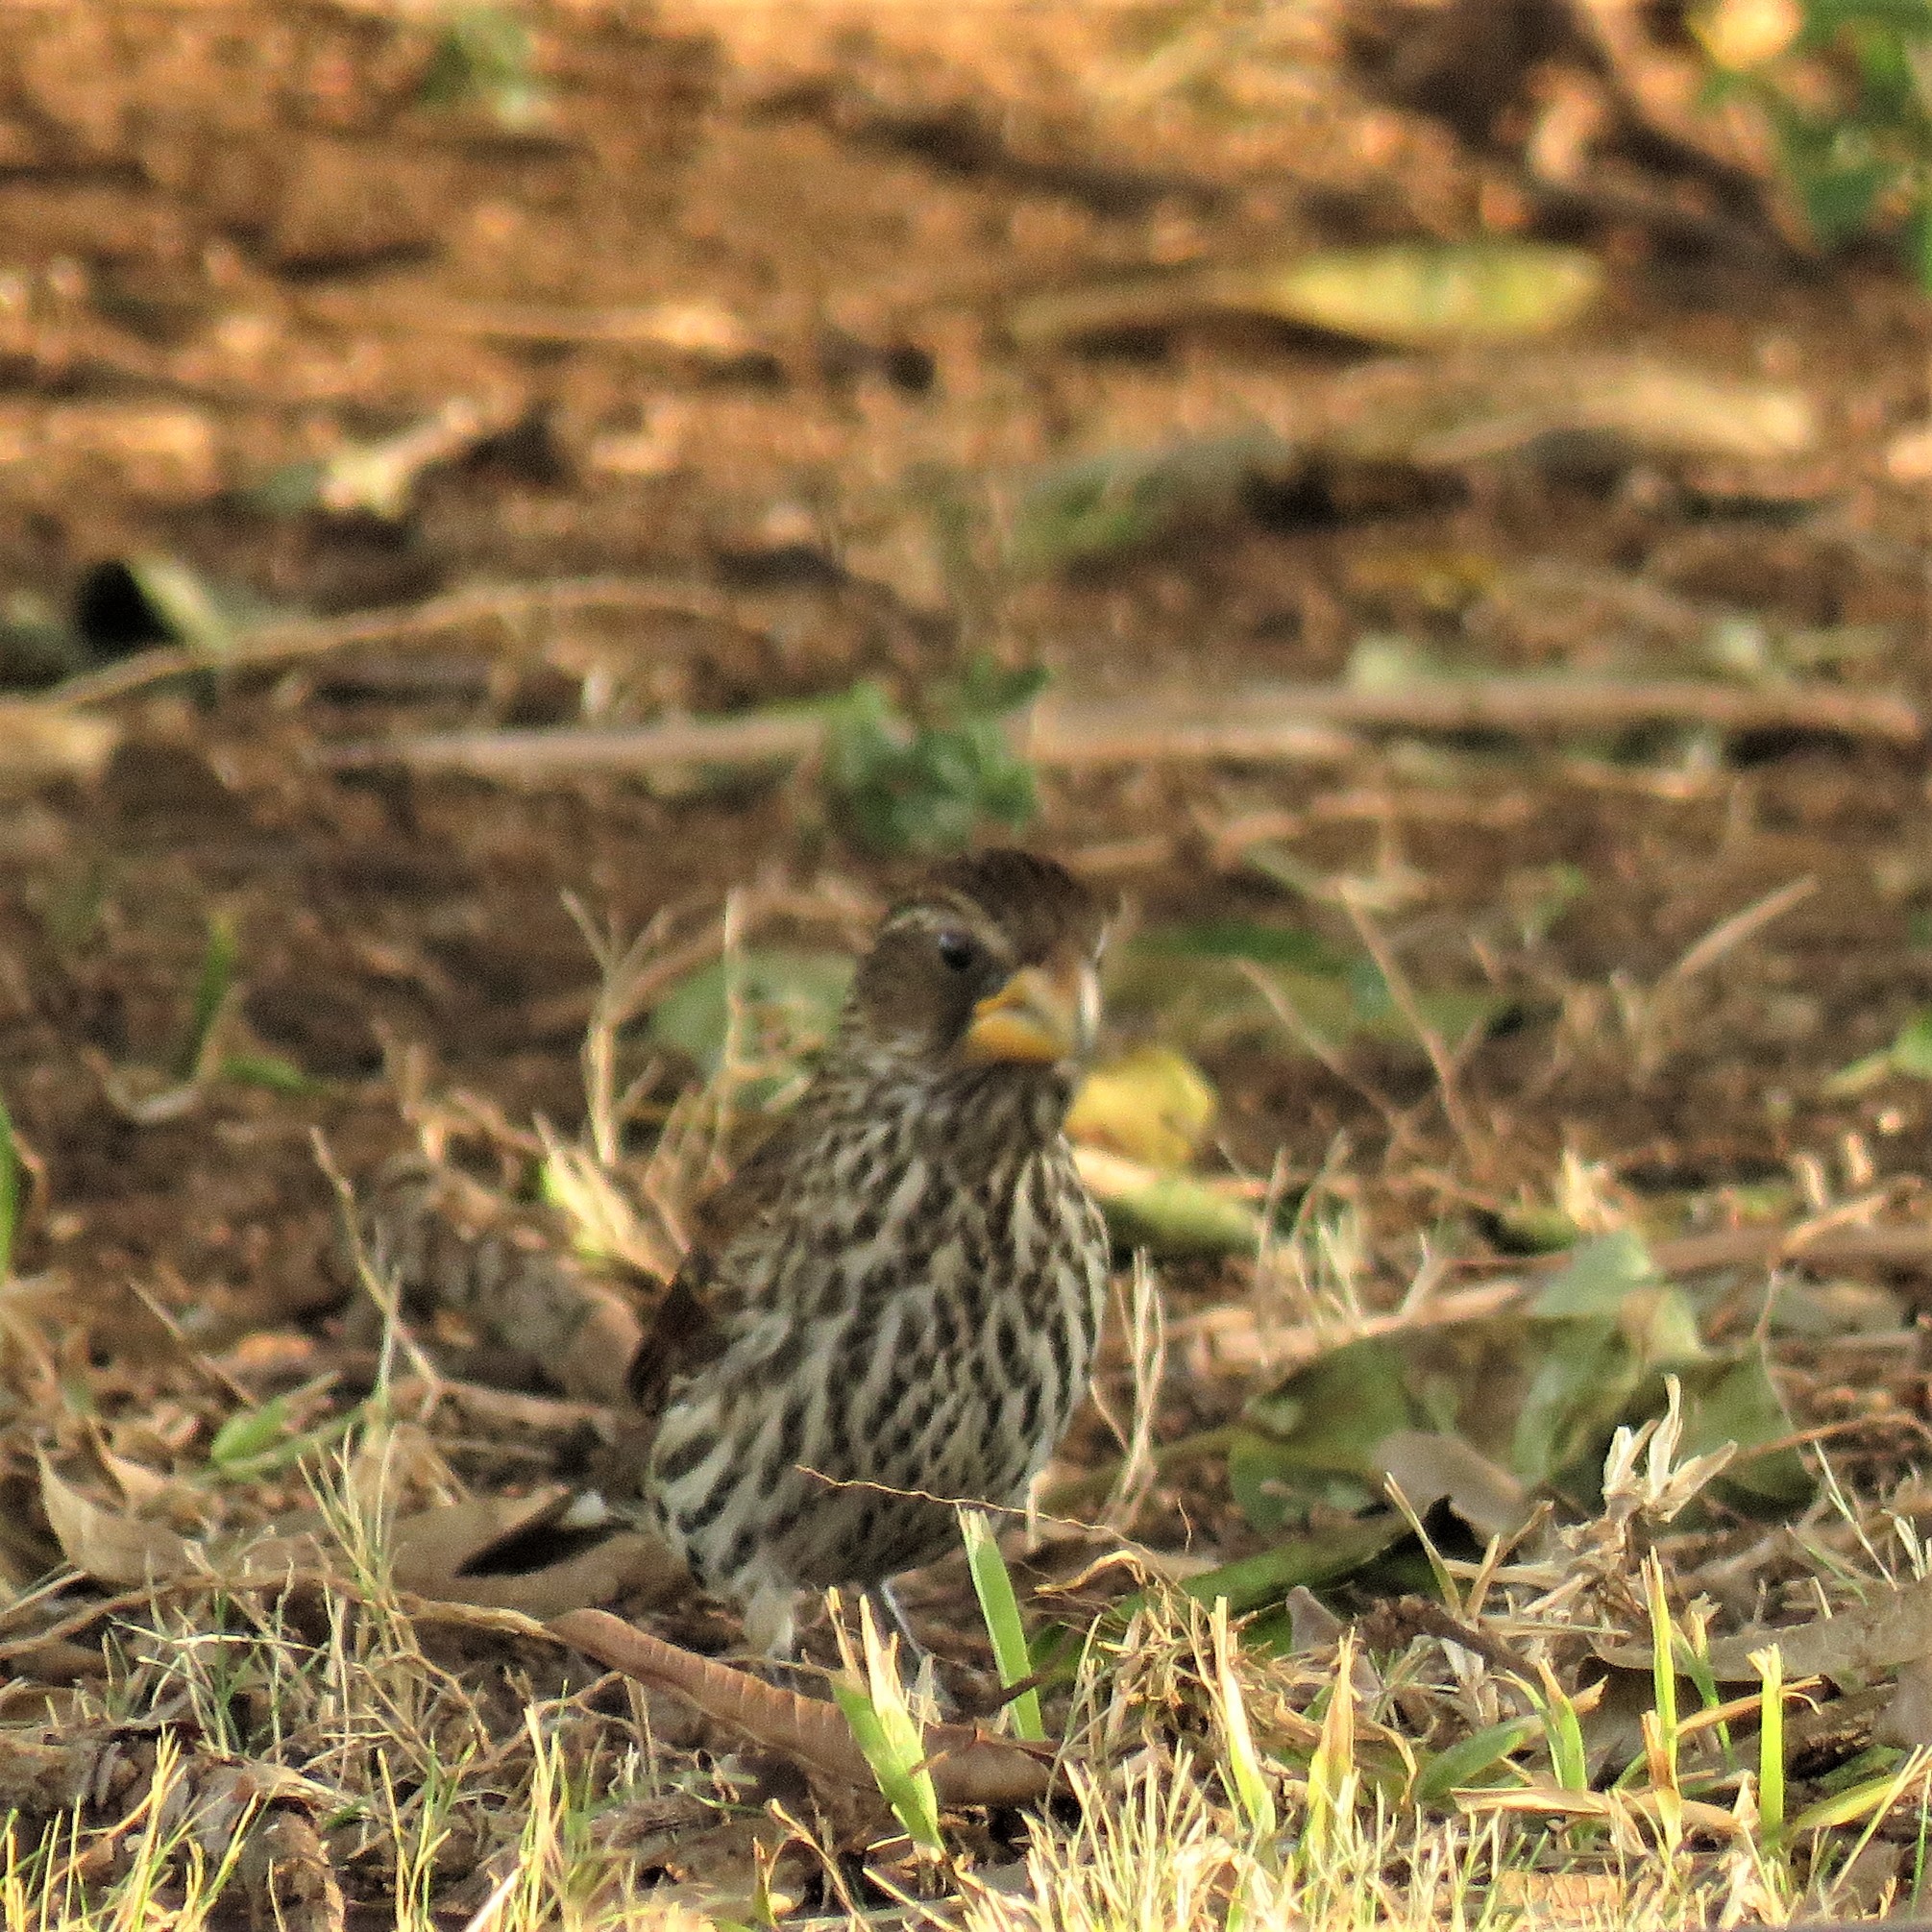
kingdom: Animalia
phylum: Chordata
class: Aves
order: Passeriformes
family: Ploceidae
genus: Amblyospiza
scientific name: Amblyospiza albifrons
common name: Thick-billed weaver
